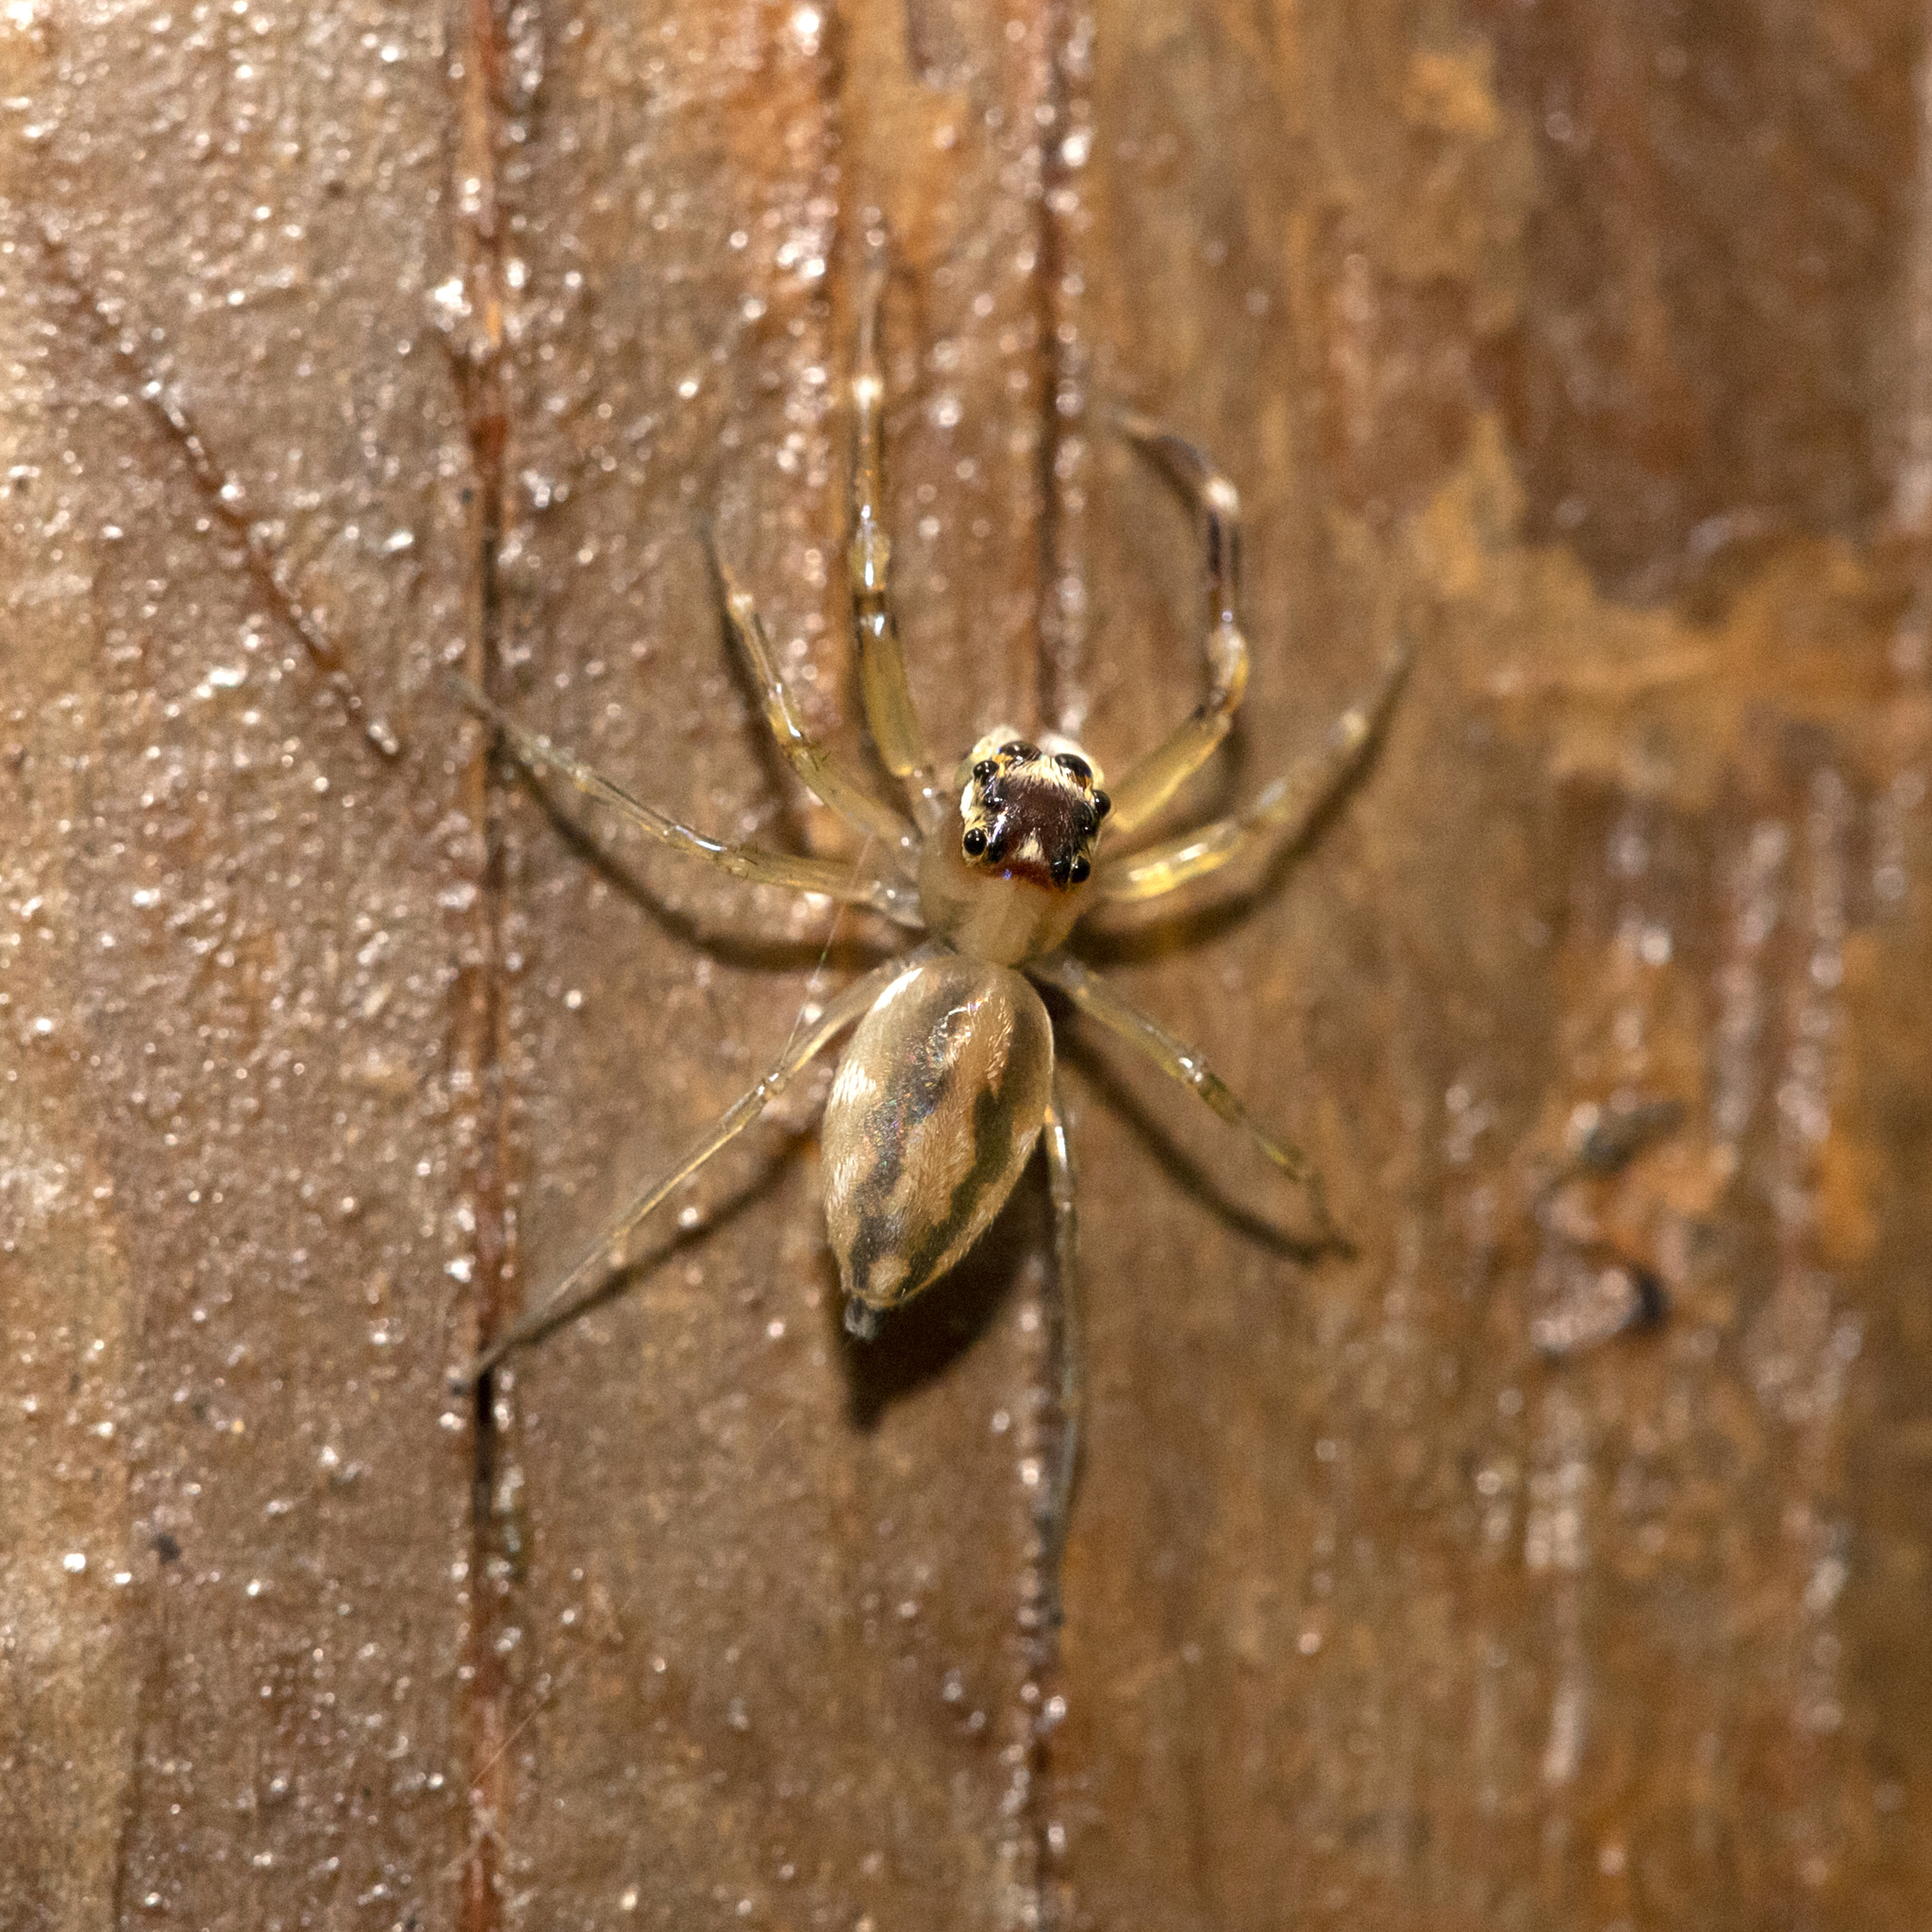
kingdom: Animalia
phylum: Arthropoda
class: Arachnida
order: Araneae
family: Salticidae
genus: Tauala
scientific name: Tauala lepidus
